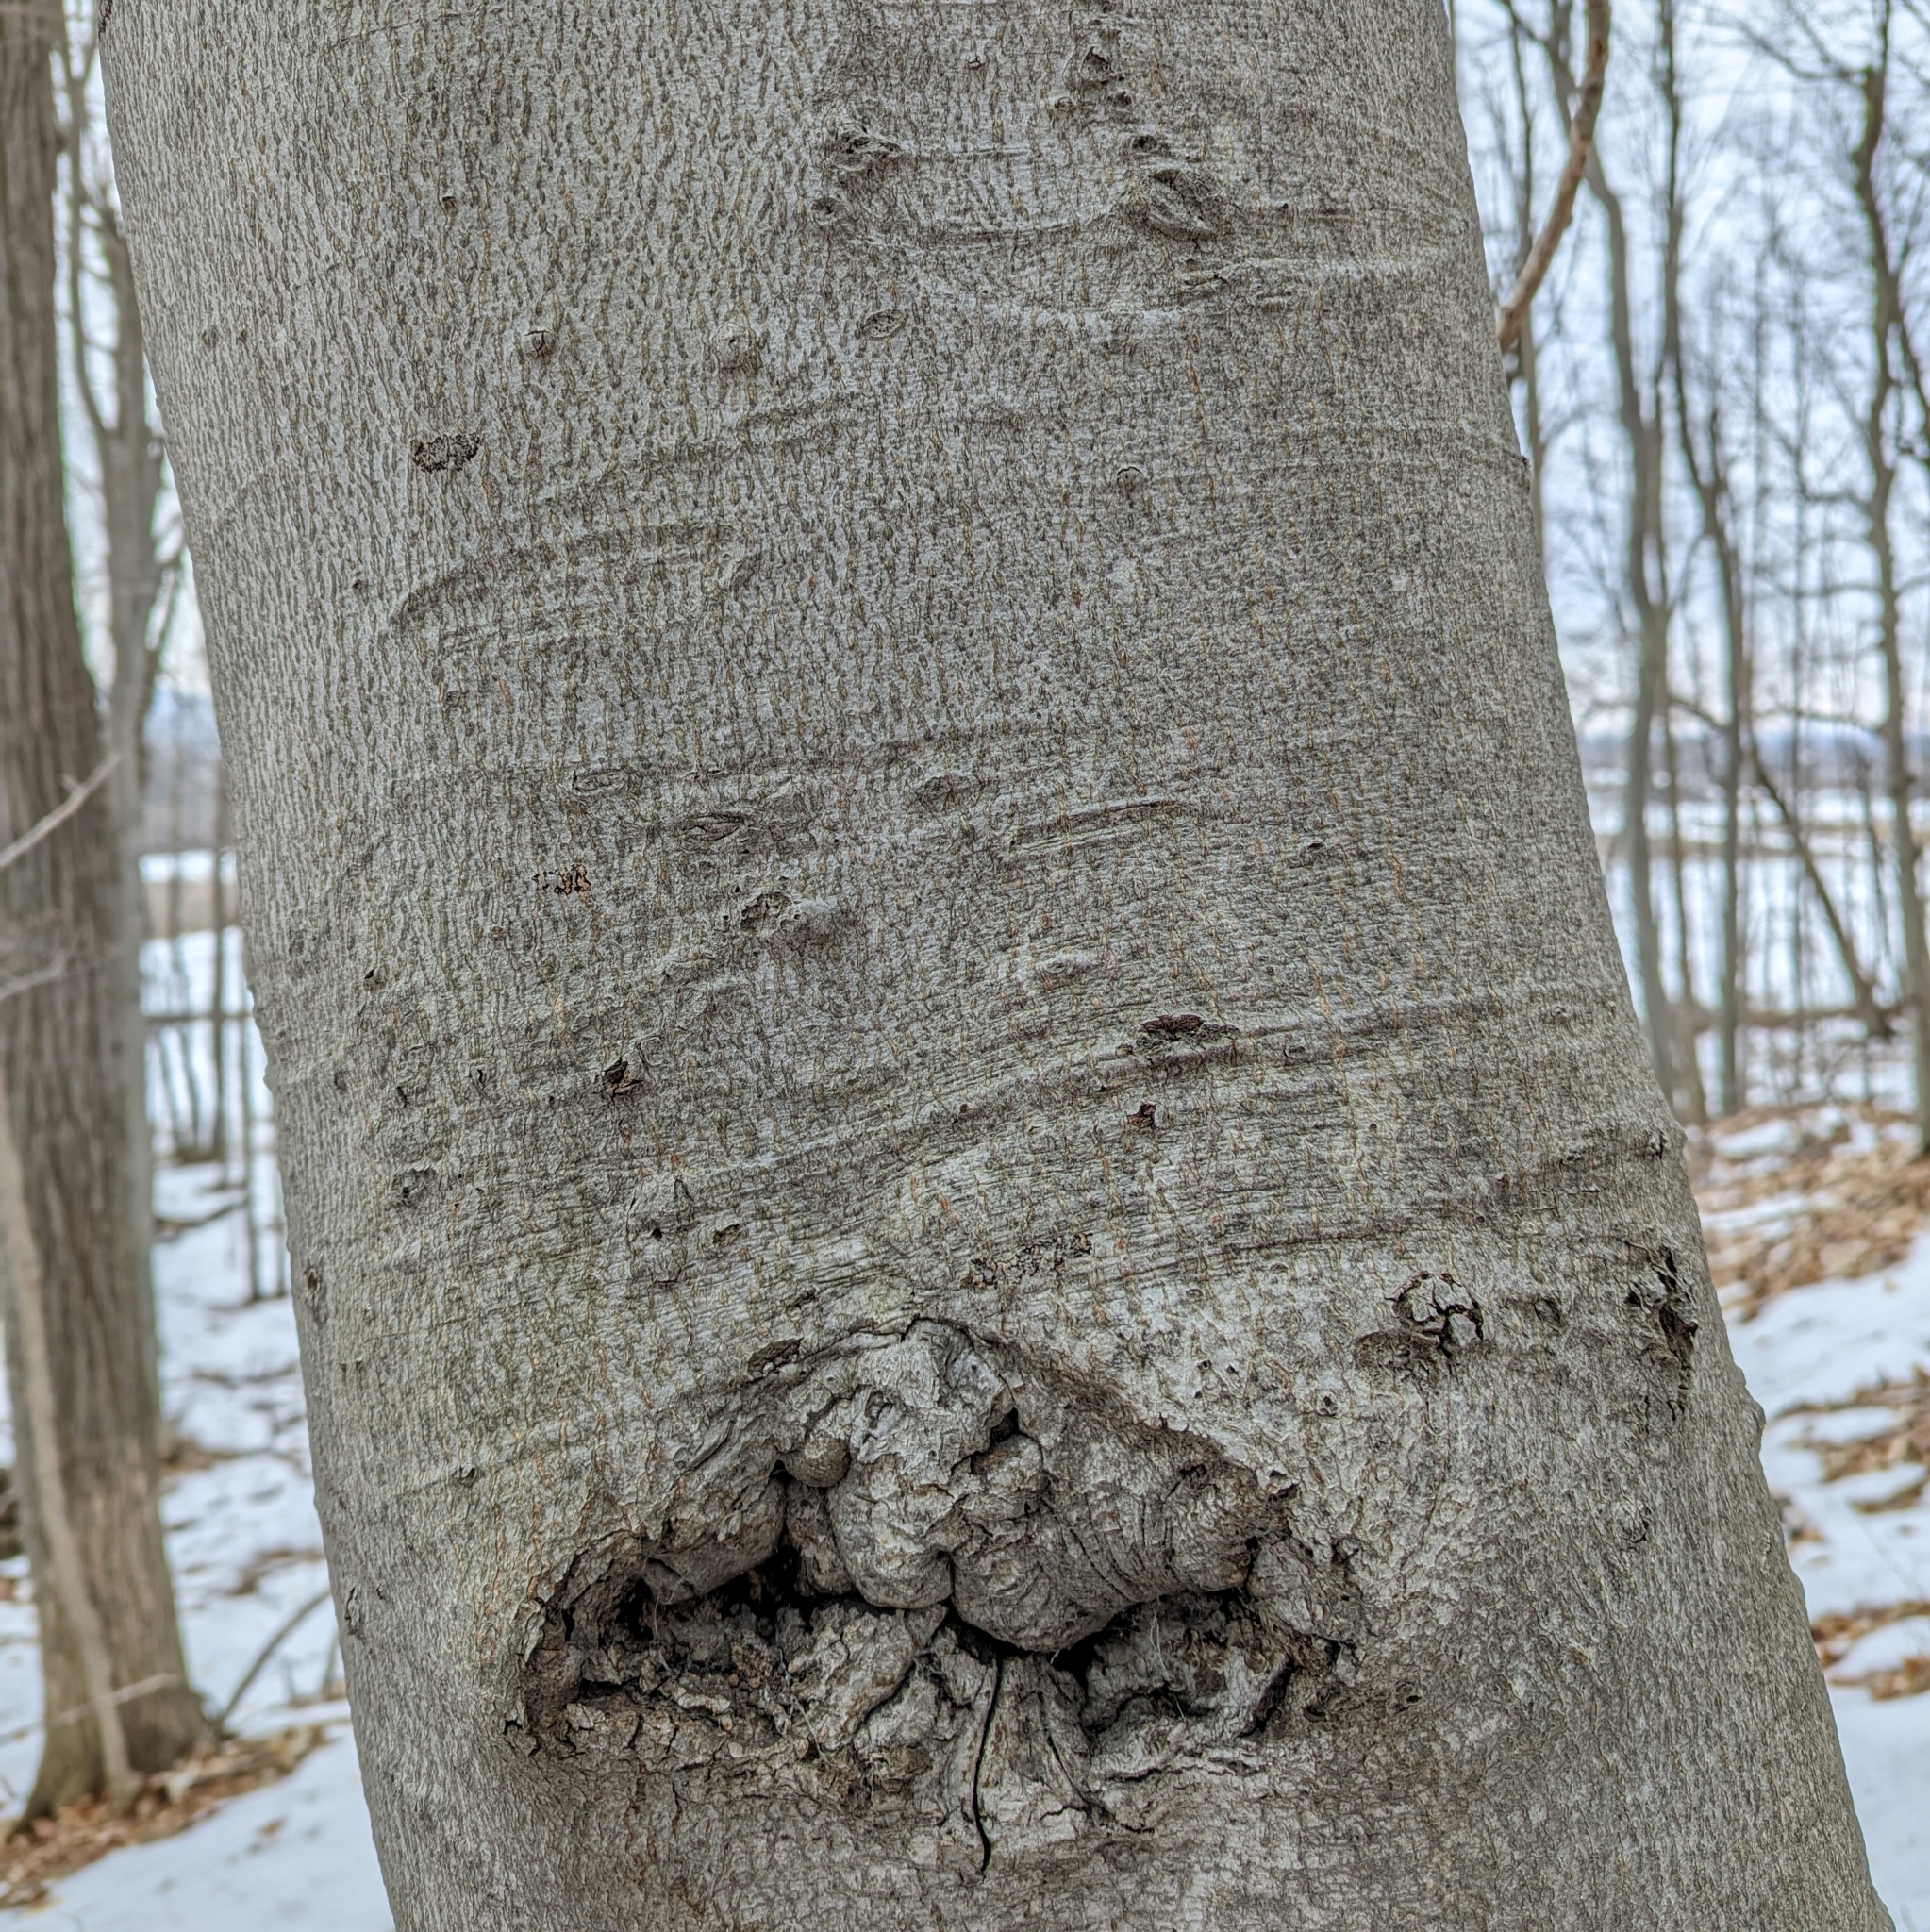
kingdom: Plantae
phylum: Tracheophyta
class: Magnoliopsida
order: Fagales
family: Fagaceae
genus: Fagus
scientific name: Fagus grandifolia
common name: American beech
